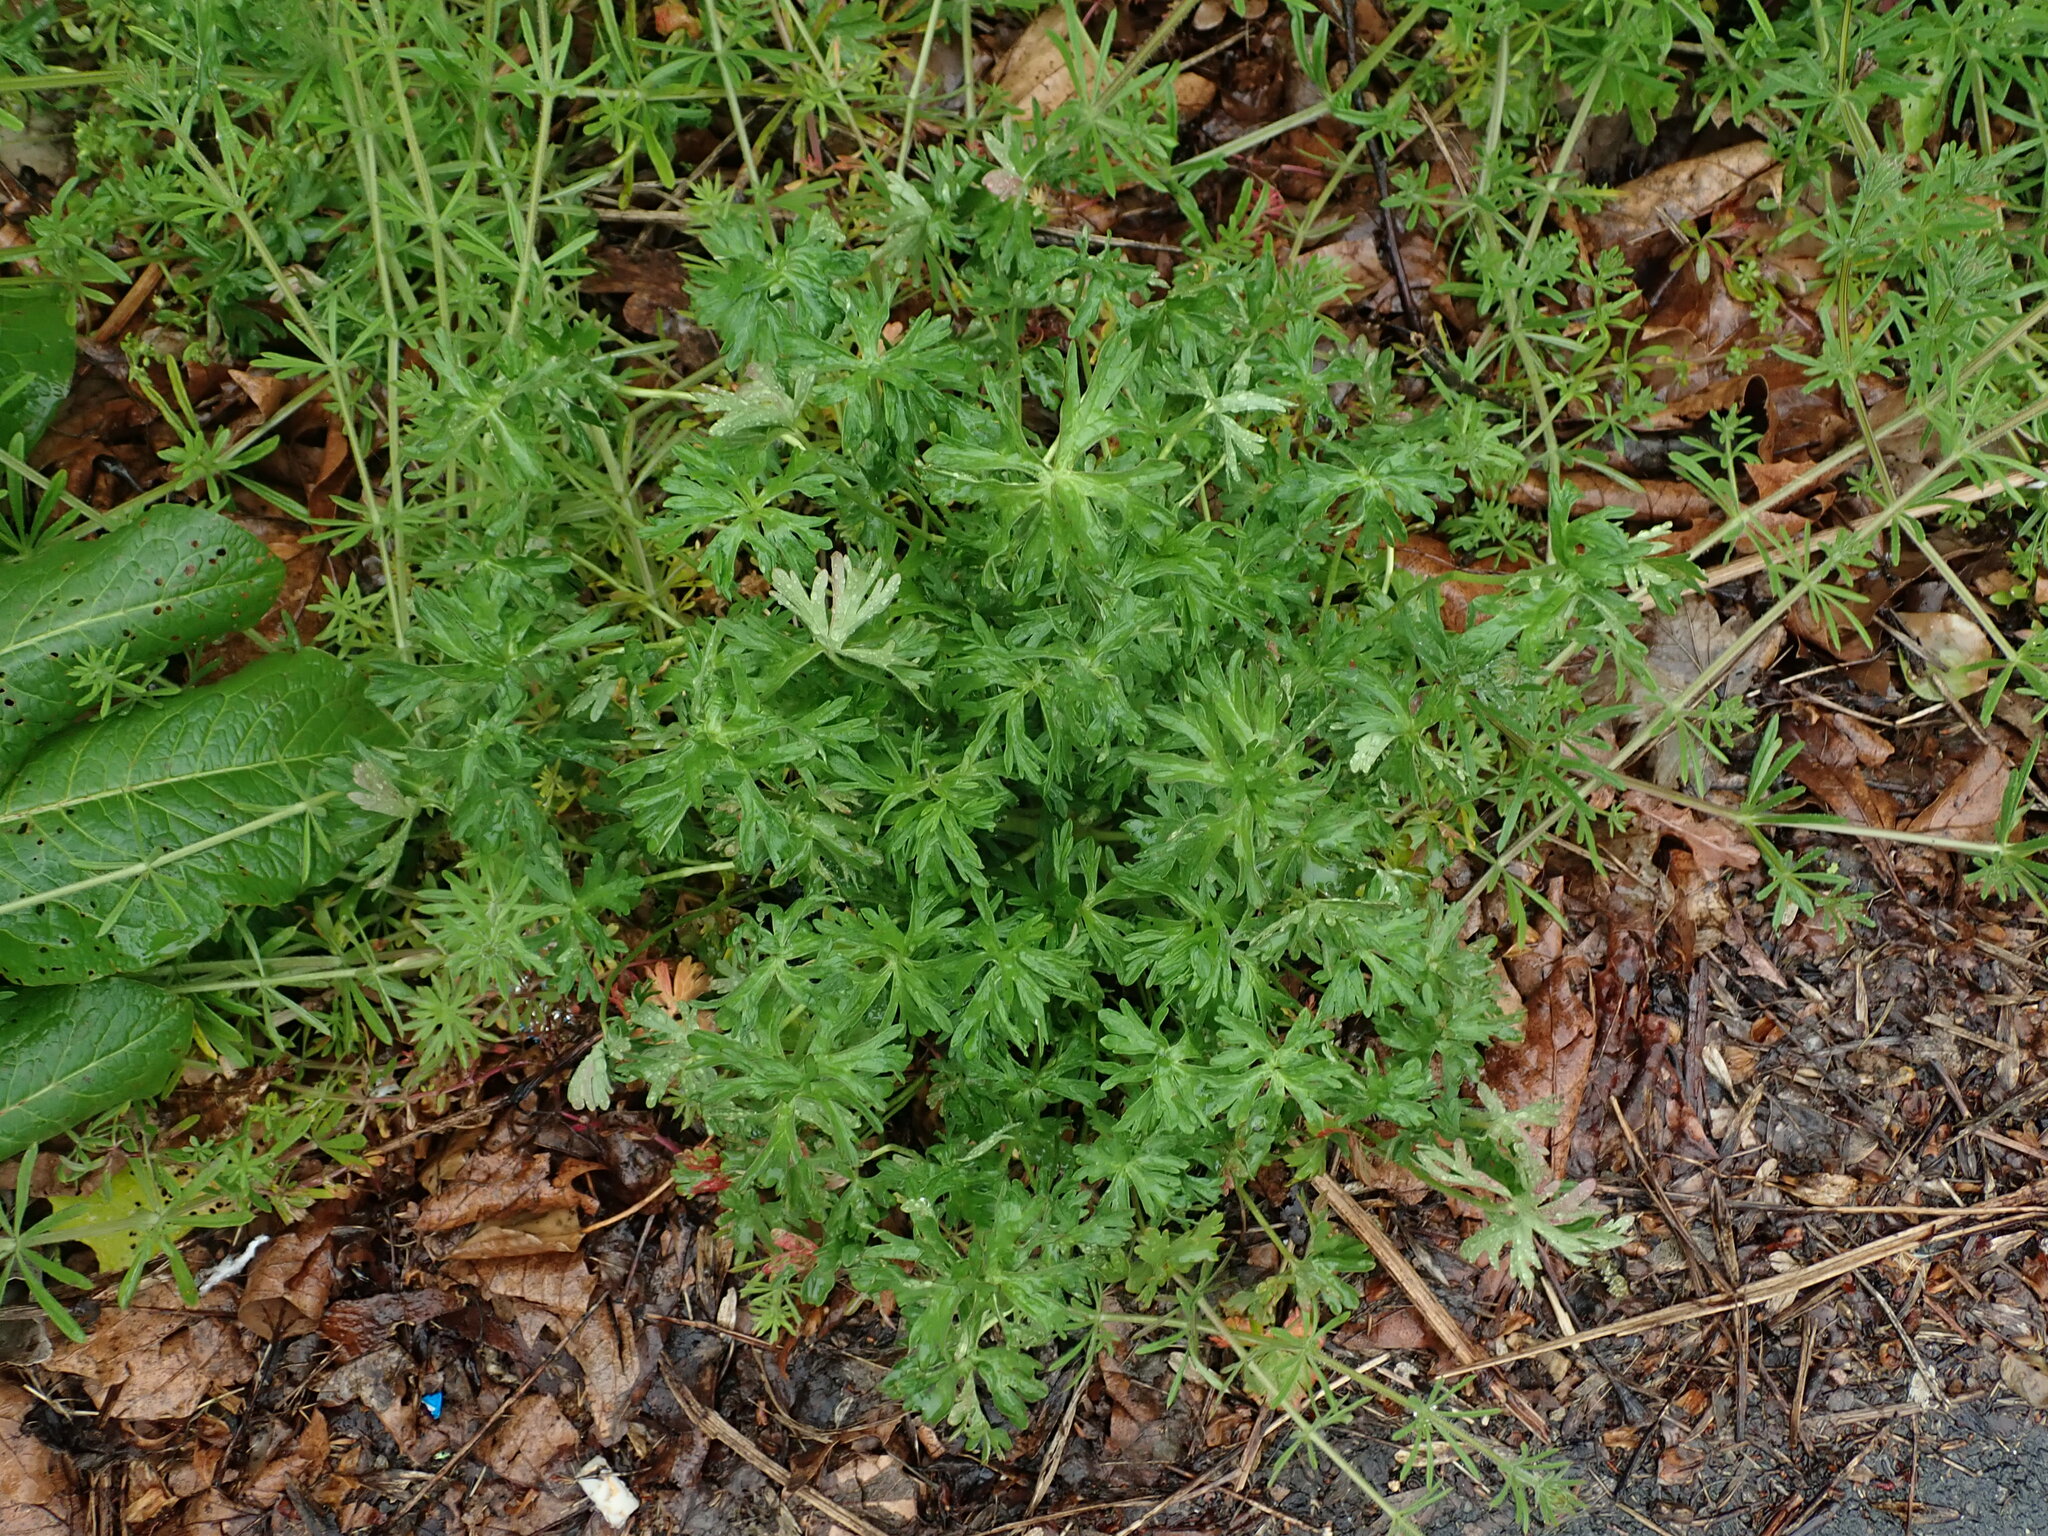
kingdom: Plantae
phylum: Tracheophyta
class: Magnoliopsida
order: Geraniales
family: Geraniaceae
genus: Geranium
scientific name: Geranium dissectum
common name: Cut-leaved crane's-bill
